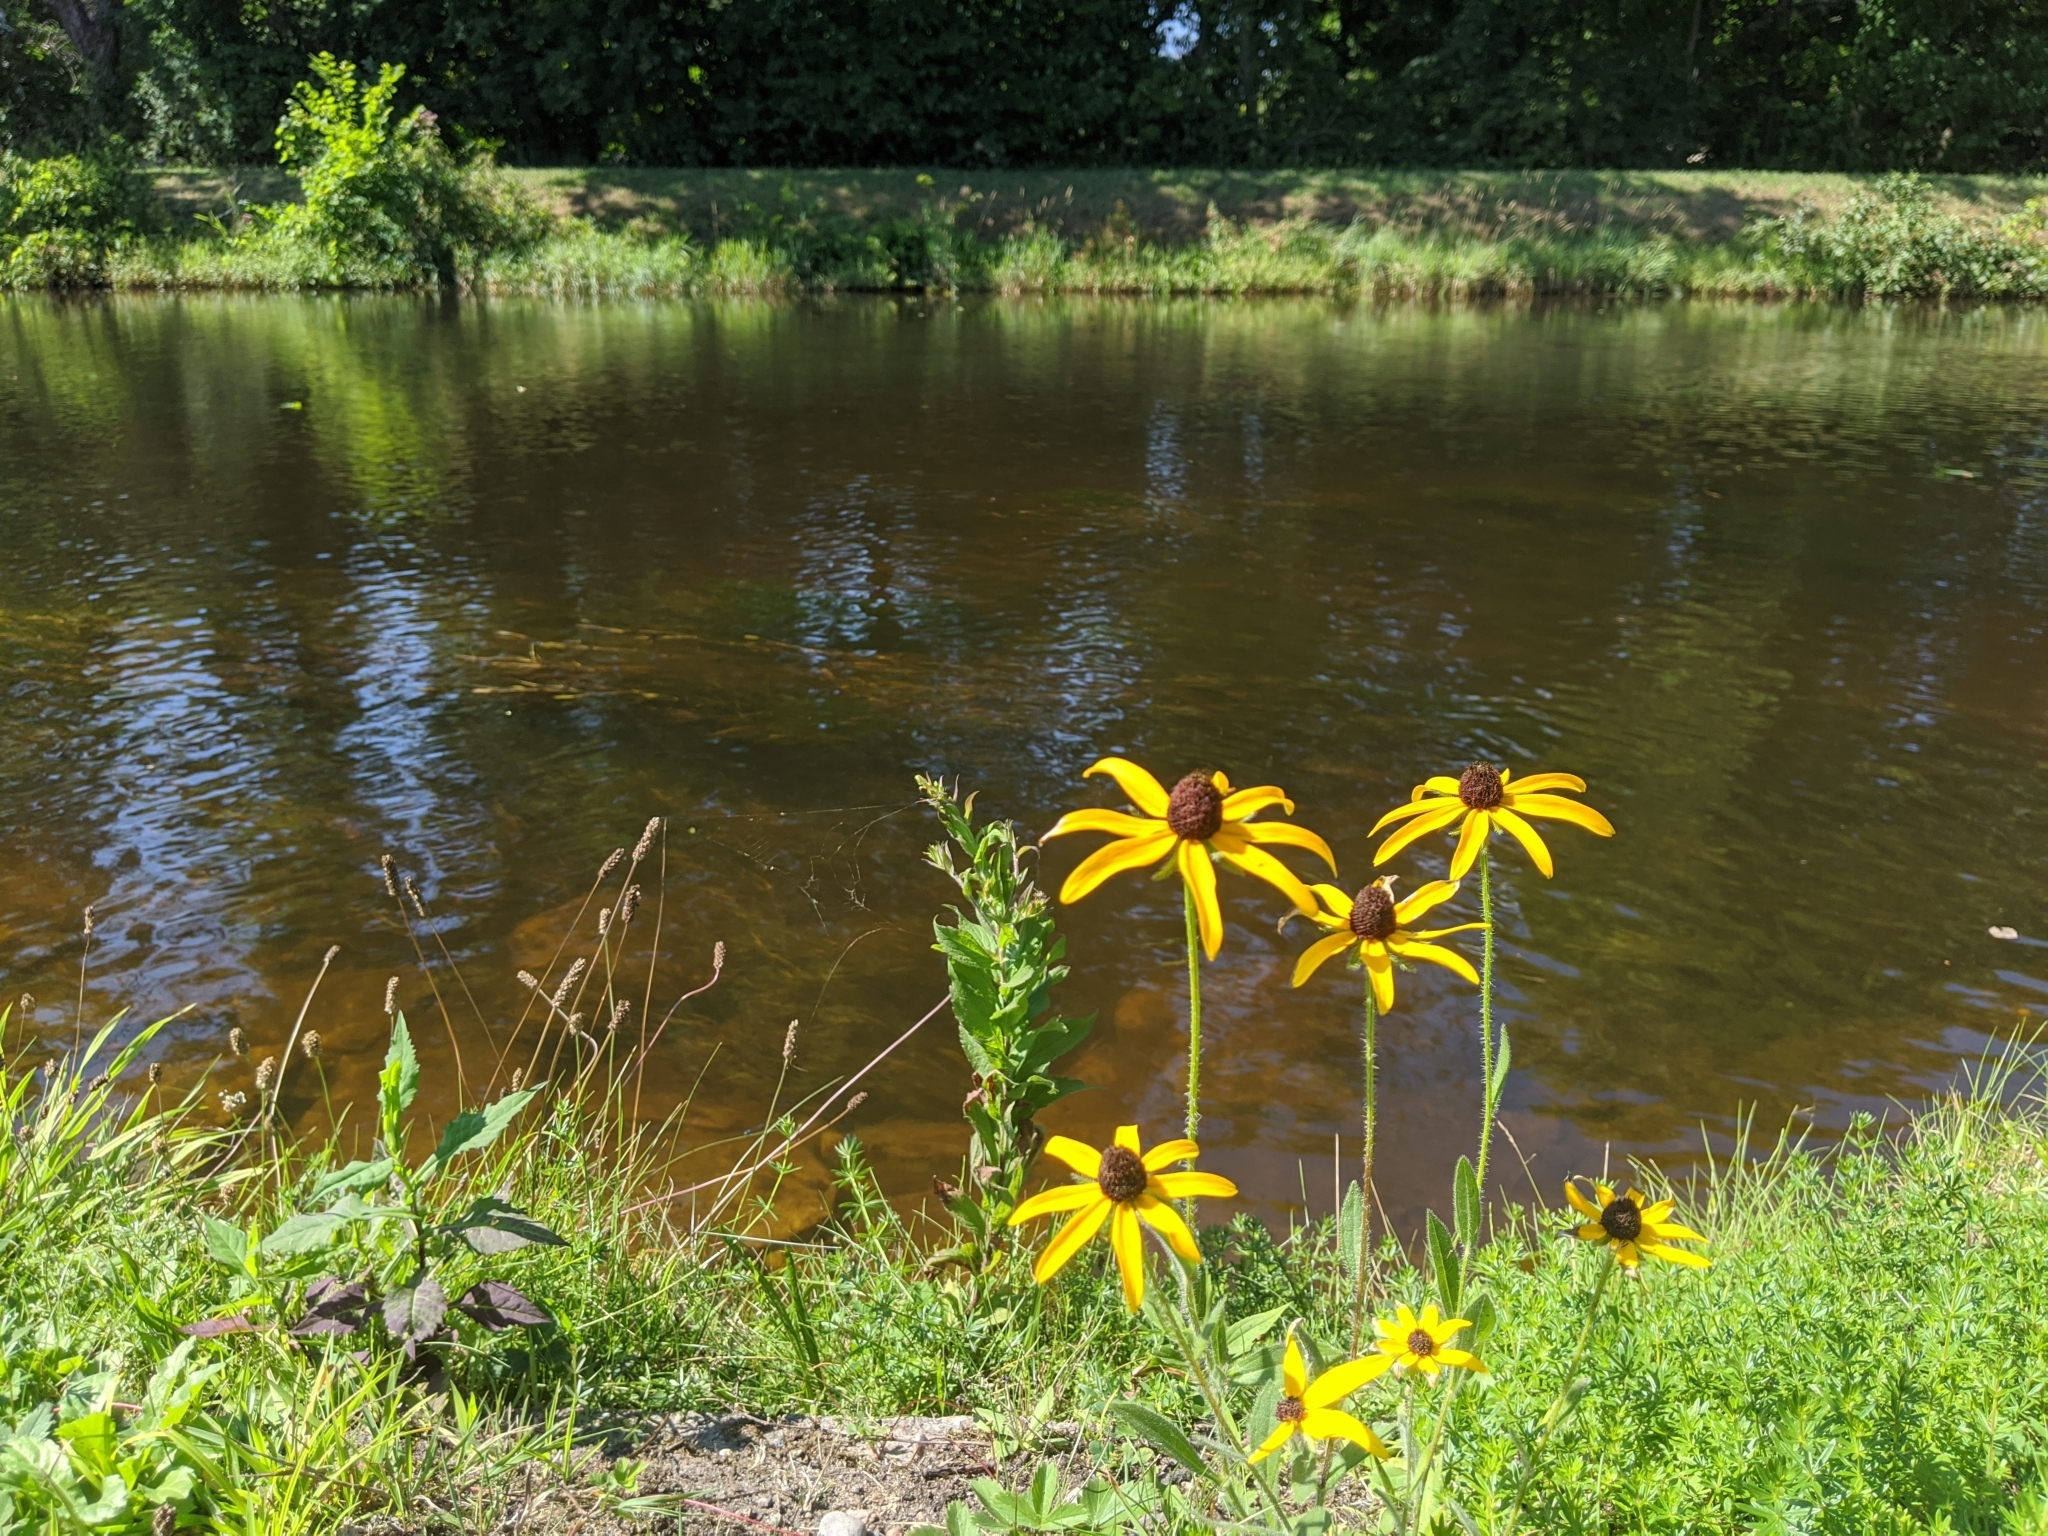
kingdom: Plantae
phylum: Tracheophyta
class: Magnoliopsida
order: Asterales
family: Asteraceae
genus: Rudbeckia
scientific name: Rudbeckia hirta
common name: Black-eyed-susan
